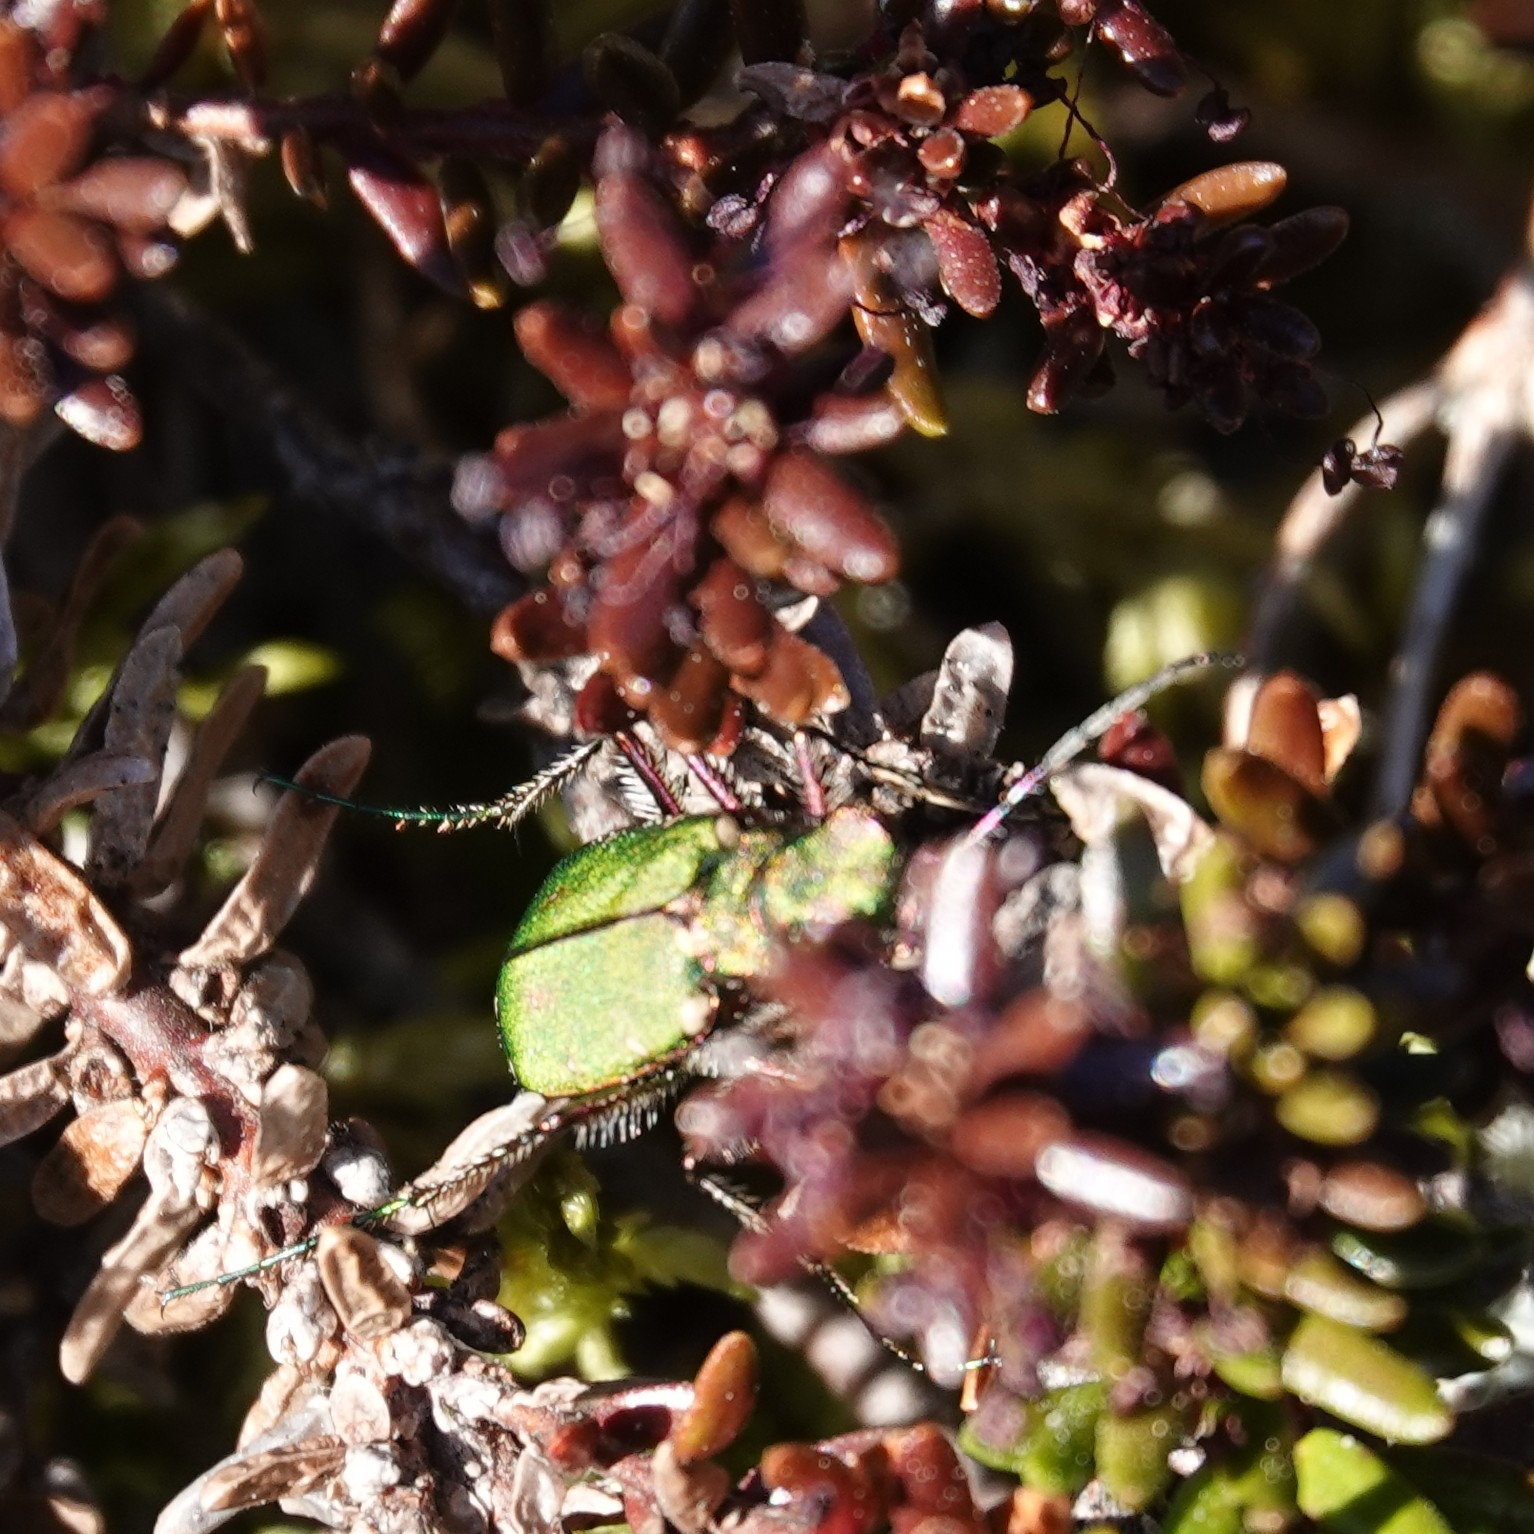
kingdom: Animalia
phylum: Arthropoda
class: Insecta
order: Coleoptera
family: Carabidae
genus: Cicindela
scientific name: Cicindela campestris
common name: Common tiger beetle
